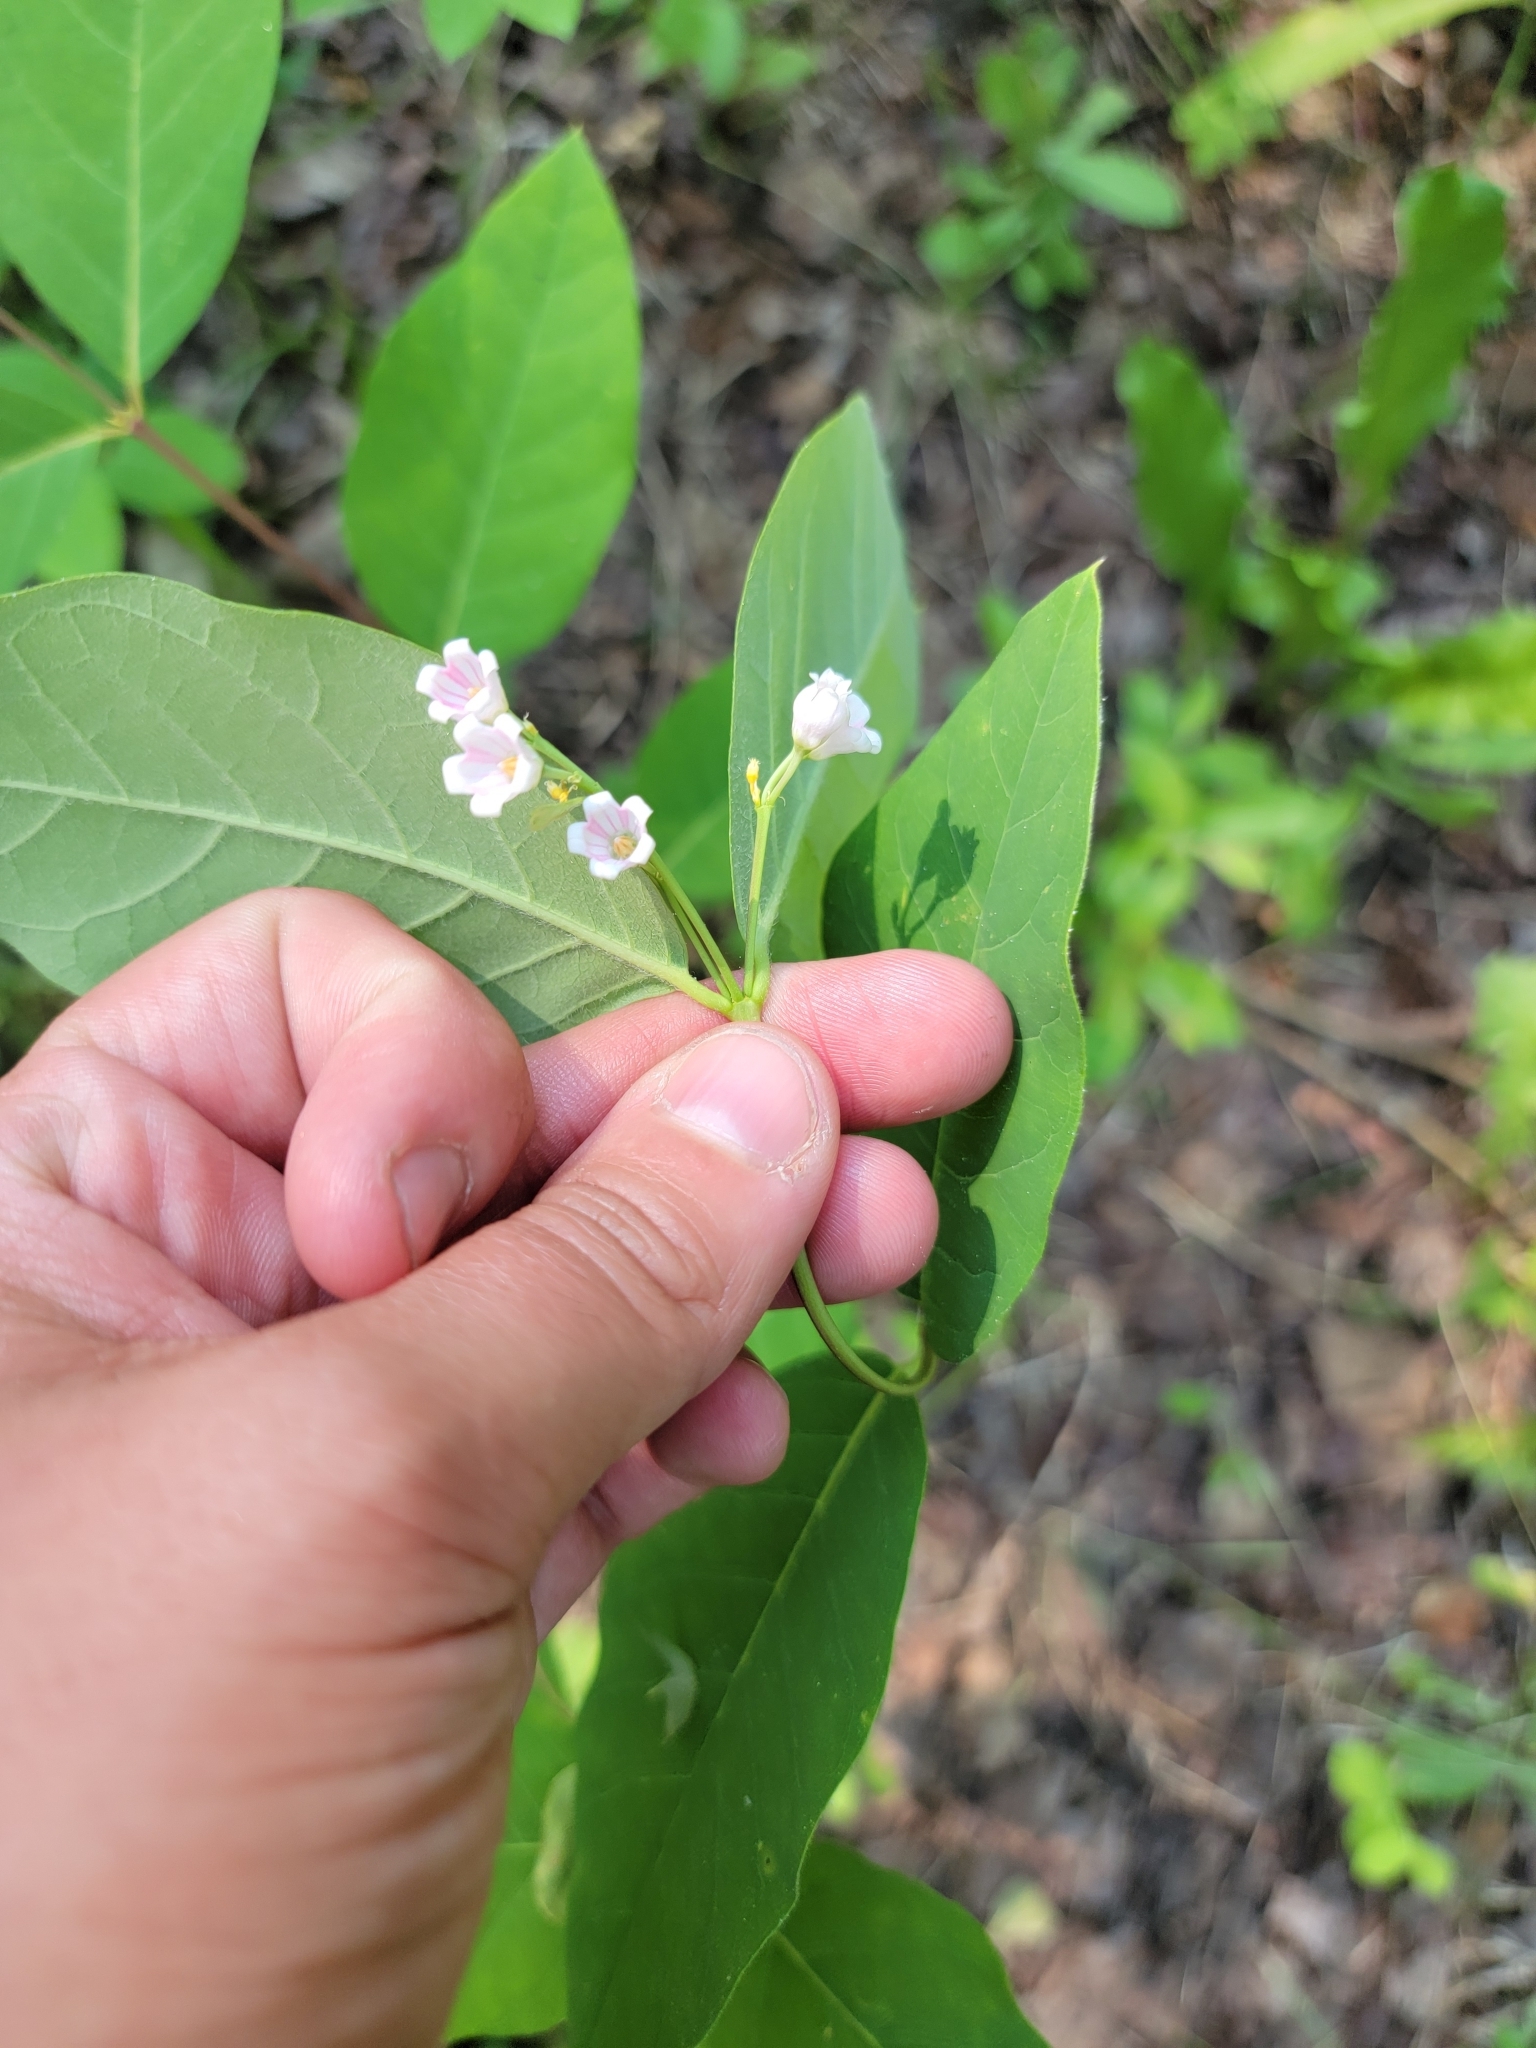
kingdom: Plantae
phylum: Tracheophyta
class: Magnoliopsida
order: Gentianales
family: Apocynaceae
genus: Apocynum
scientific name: Apocynum androsaemifolium
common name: Spreading dogbane
